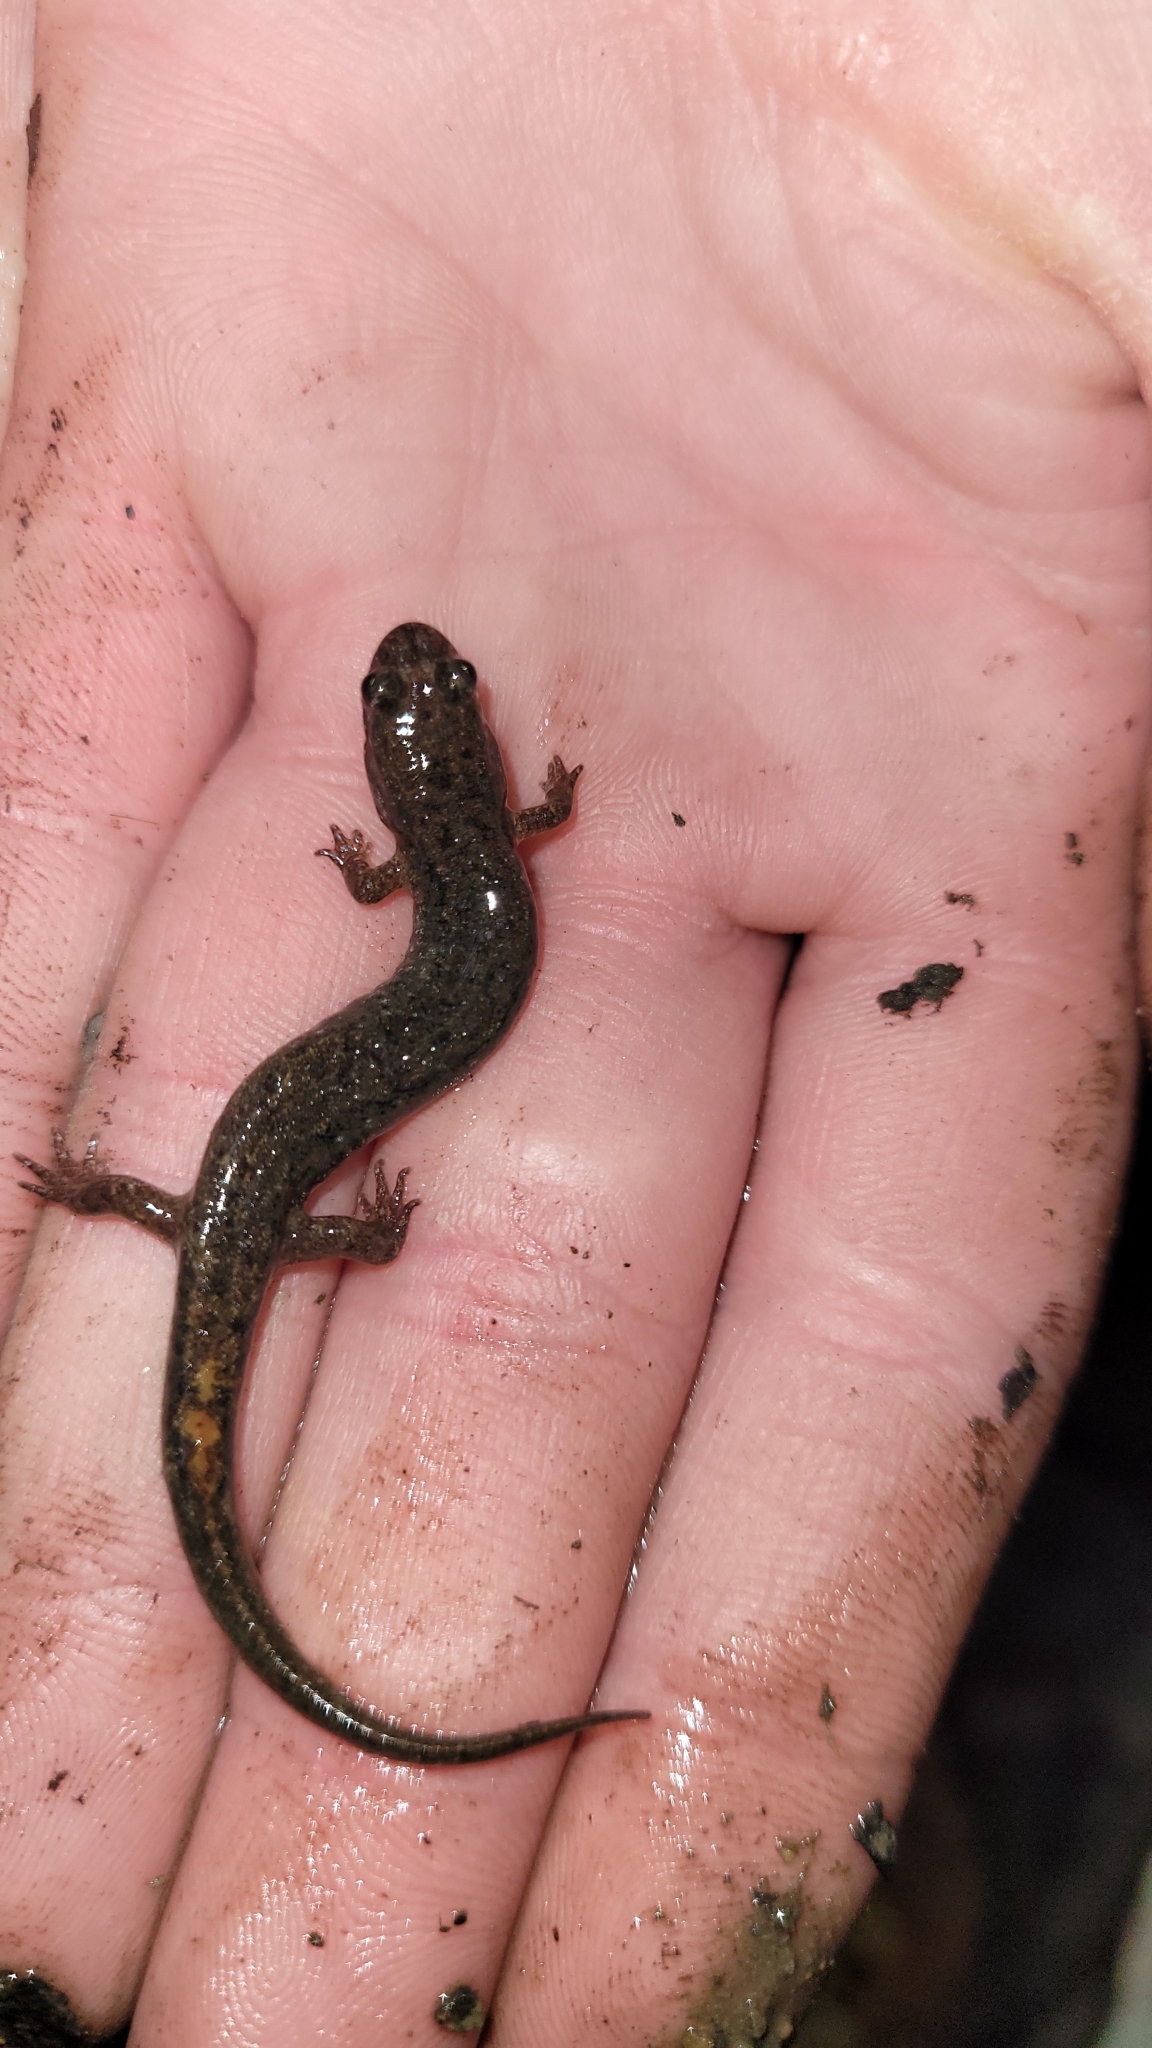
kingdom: Animalia
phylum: Chordata
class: Amphibia
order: Caudata
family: Plethodontidae
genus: Desmognathus
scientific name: Desmognathus fuscus
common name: Northern dusky salamander
